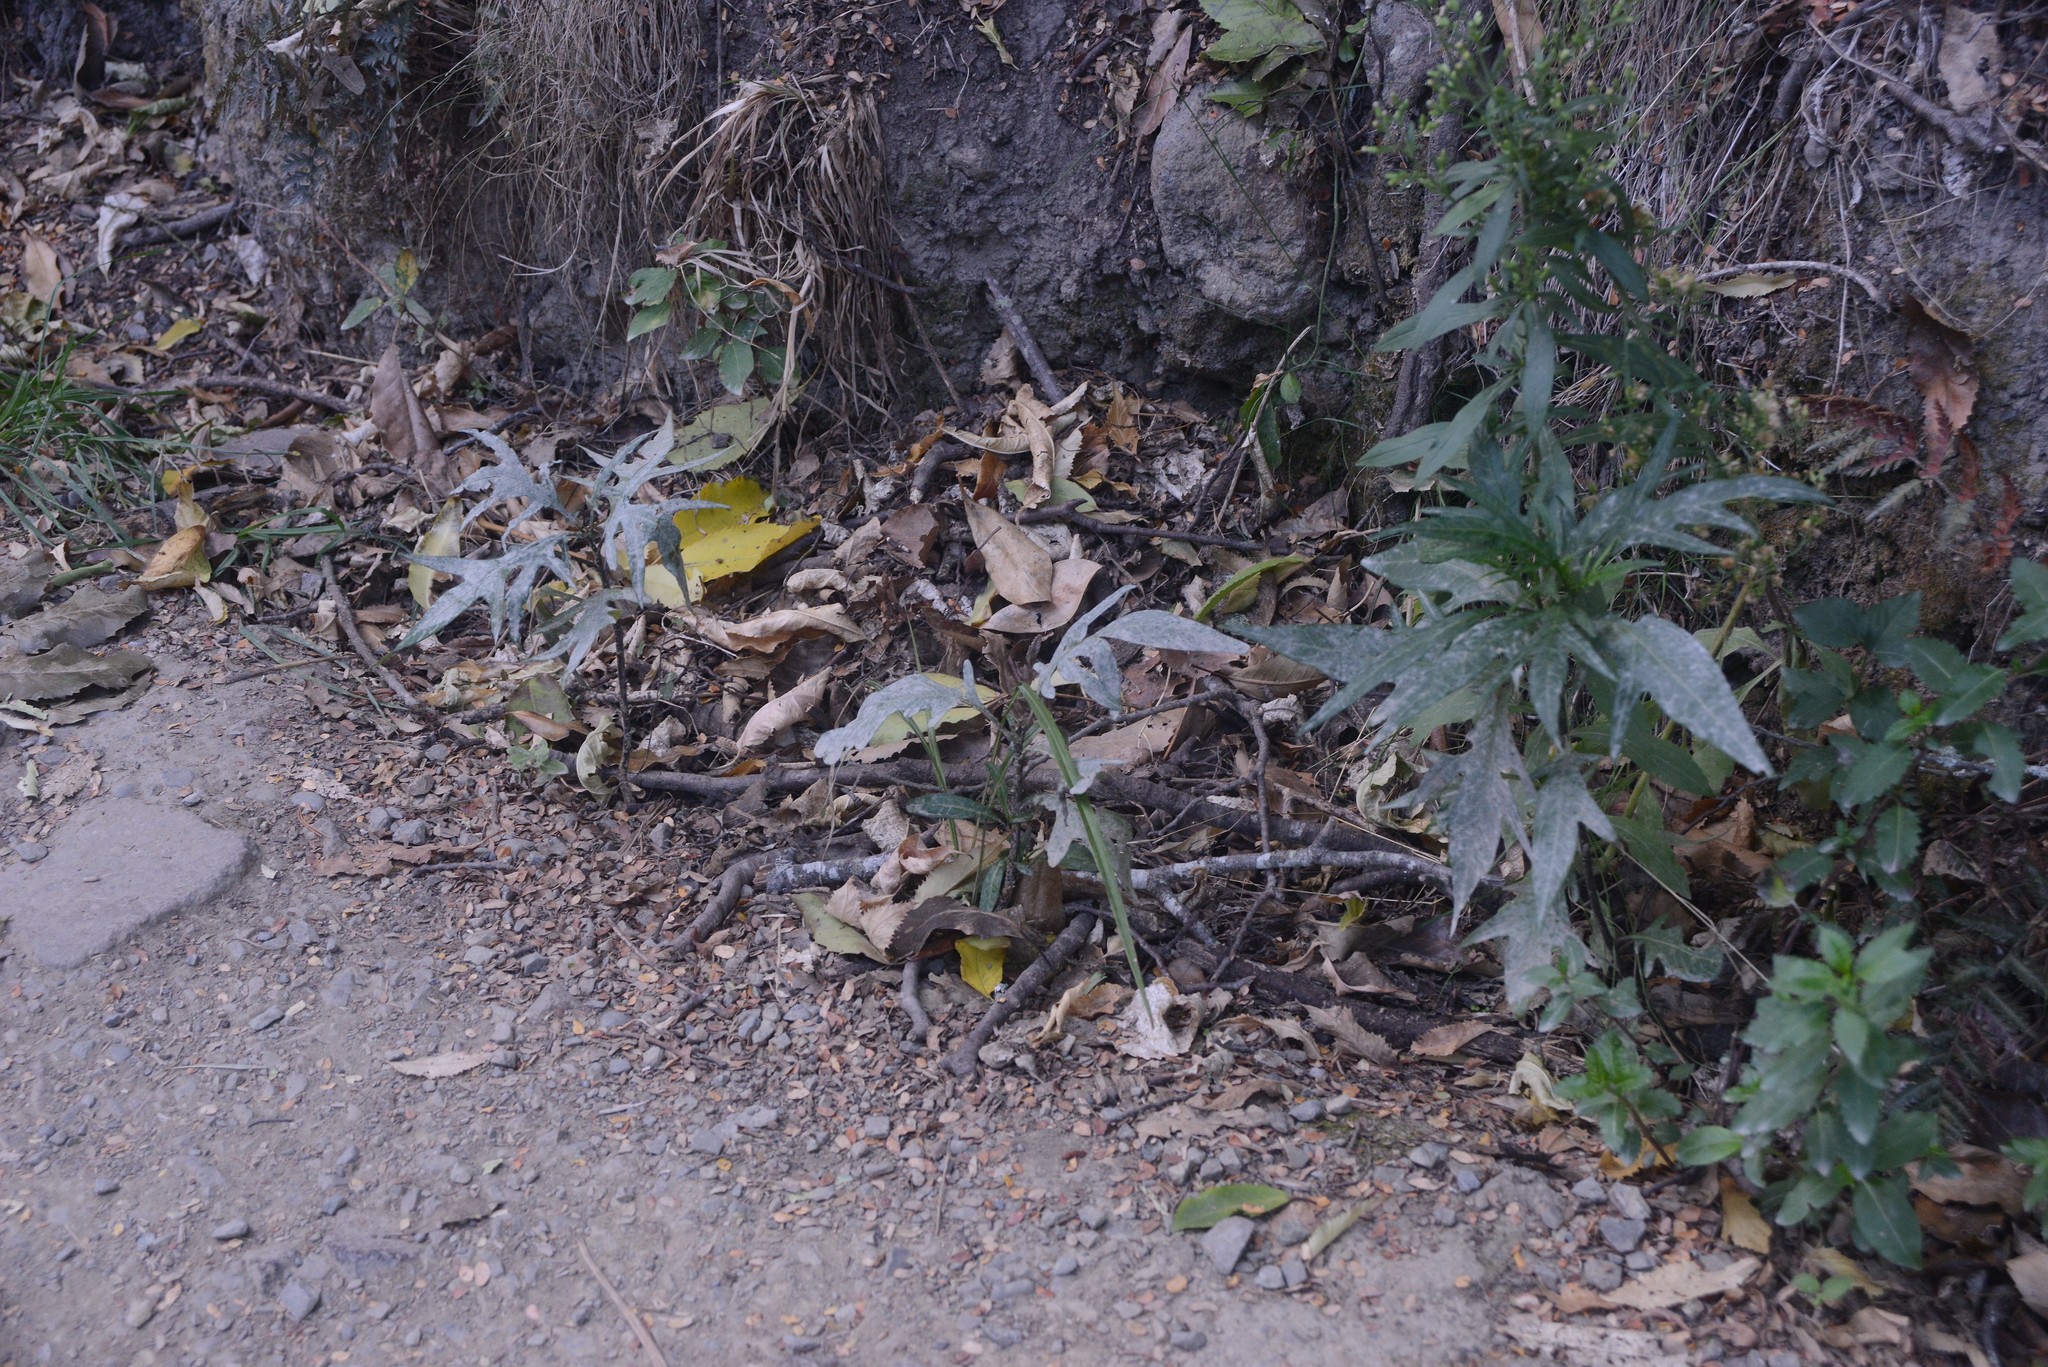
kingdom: Fungi
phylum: Ascomycota
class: Leotiomycetes
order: Helotiales
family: Erysiphaceae
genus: Golovinomyces
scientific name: Golovinomyces longipes
